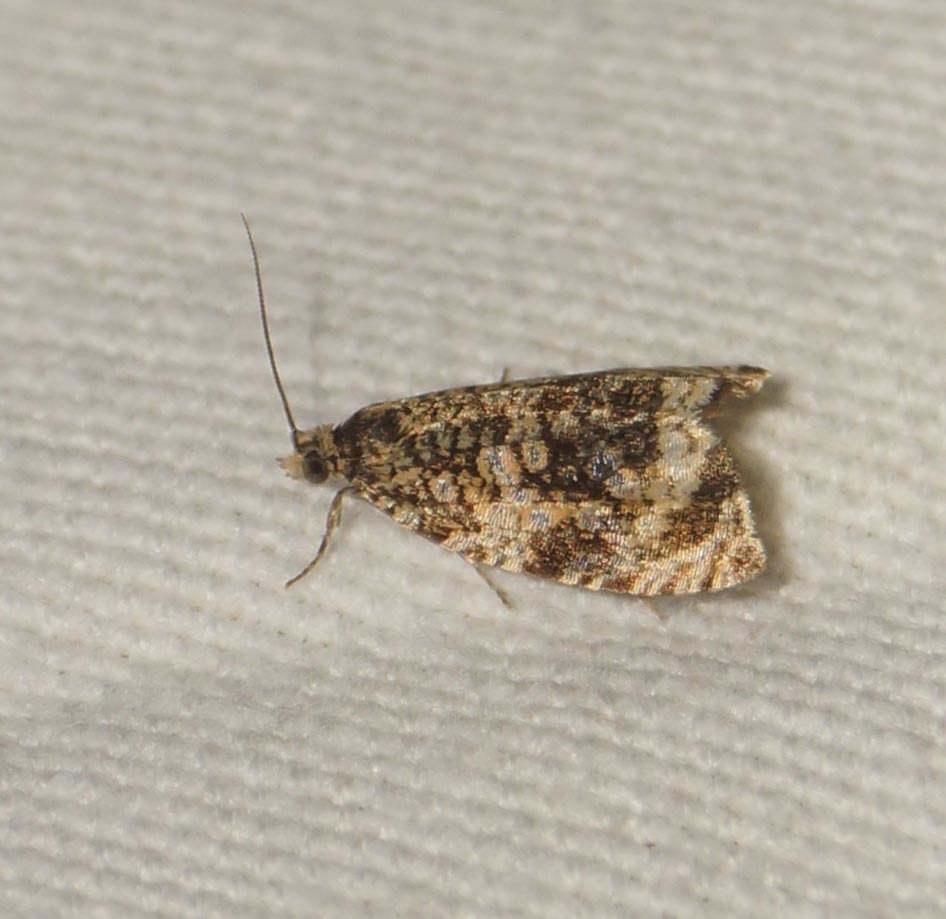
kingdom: Animalia
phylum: Arthropoda
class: Insecta
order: Lepidoptera
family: Tortricidae
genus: Syricoris
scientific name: Syricoris lacunana
